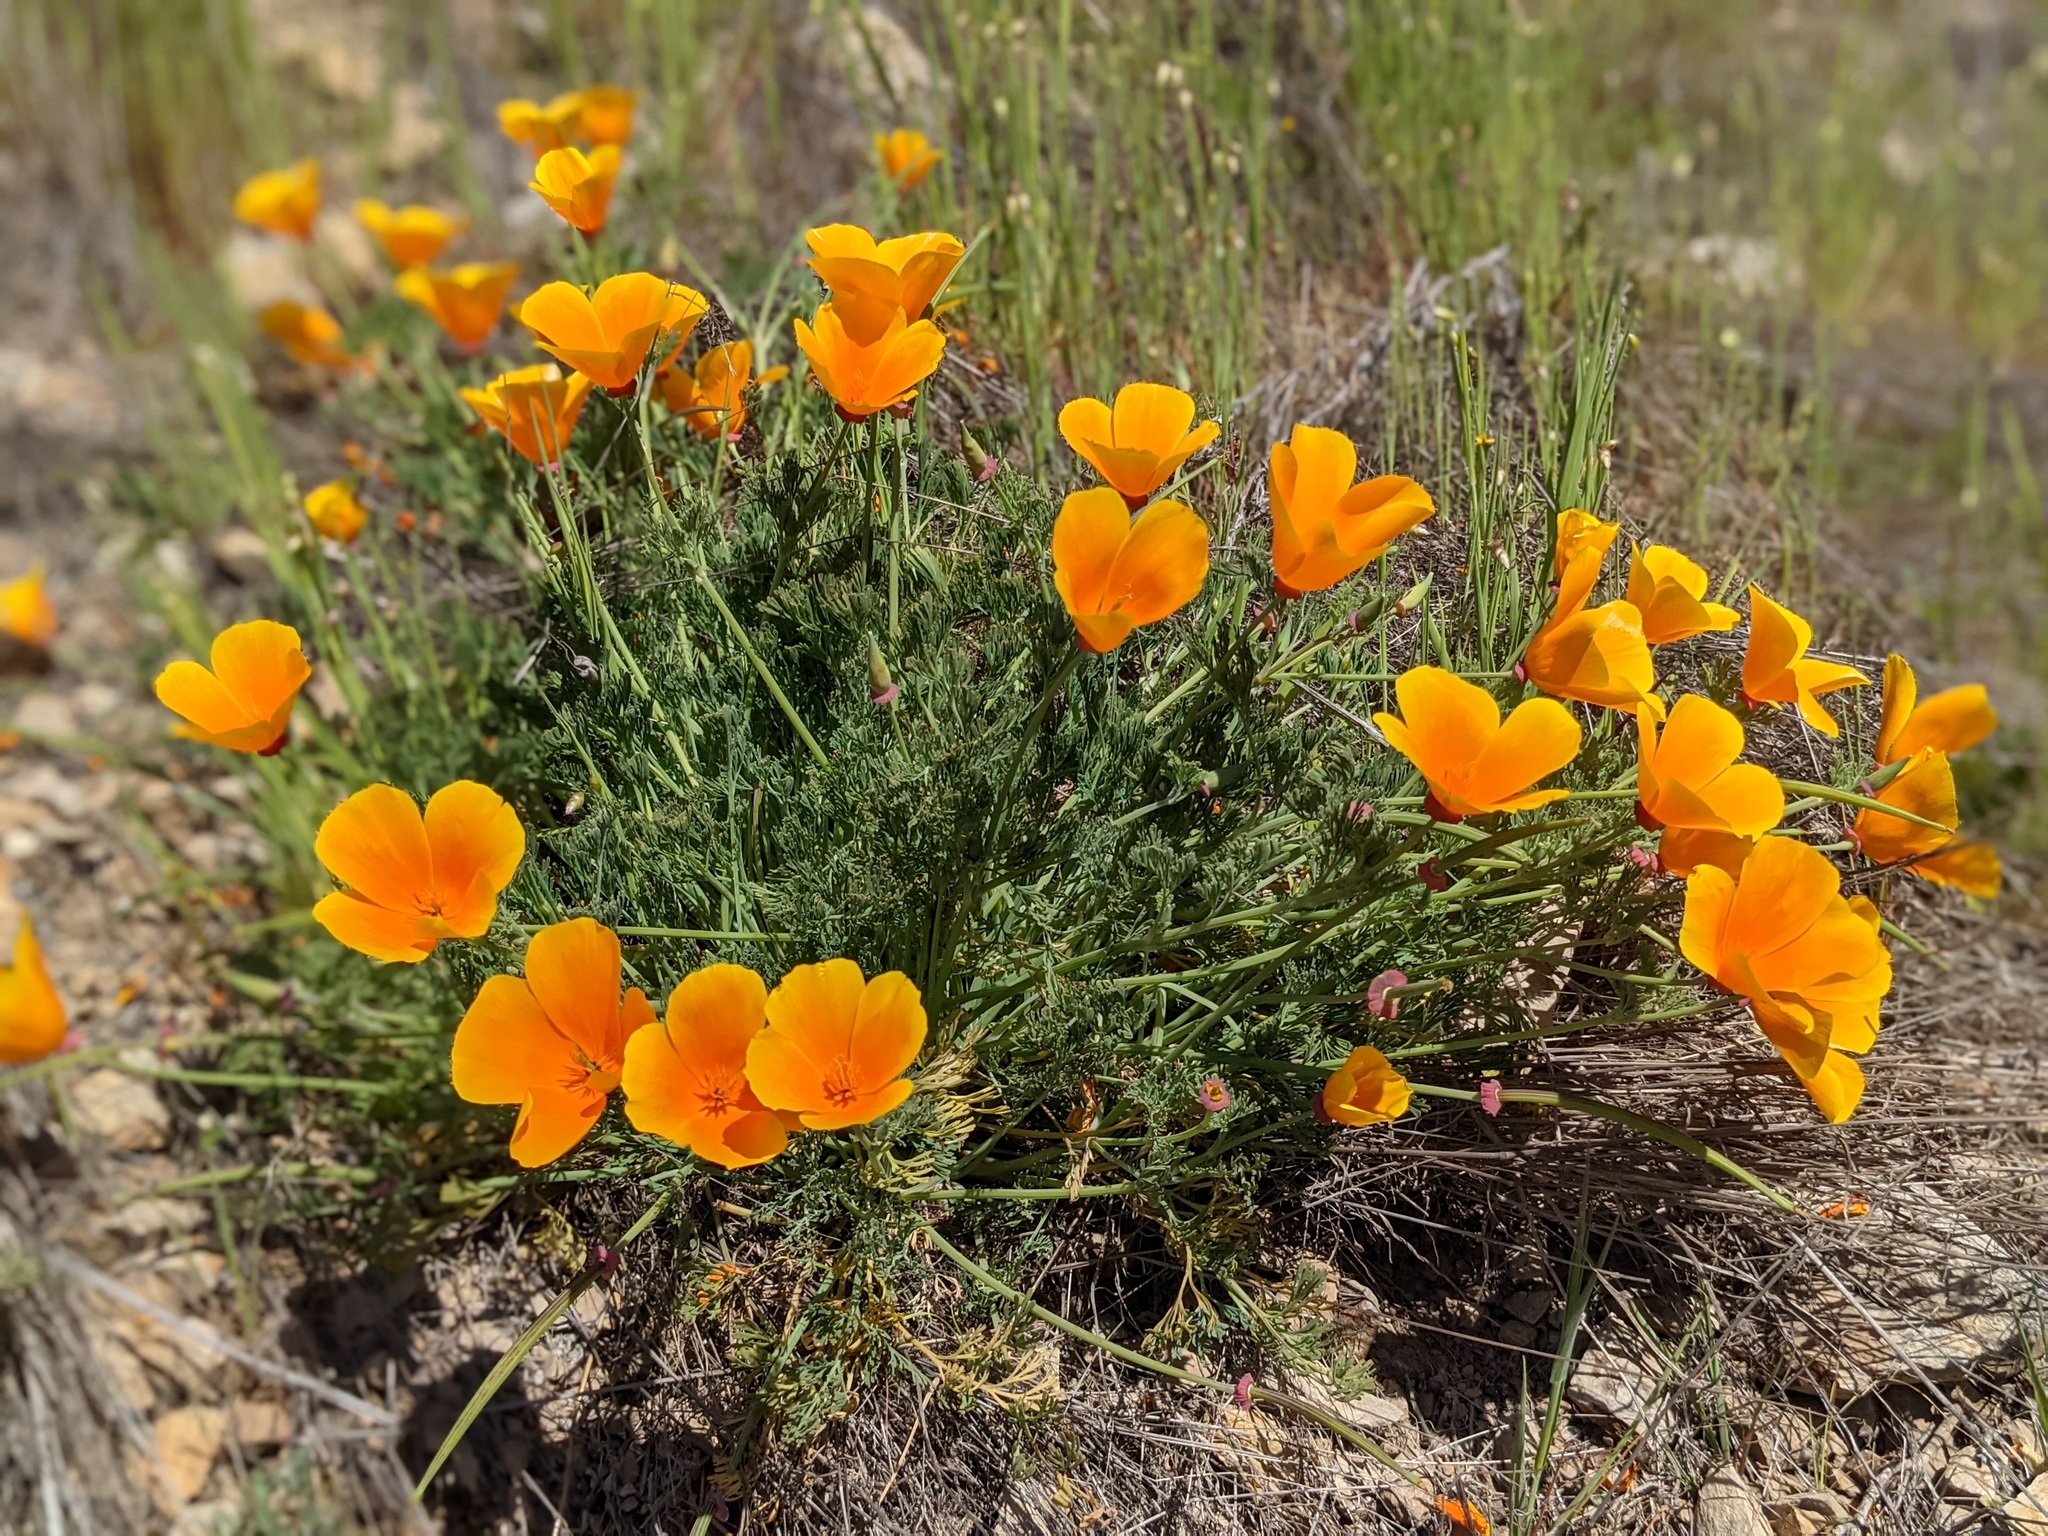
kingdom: Plantae
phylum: Tracheophyta
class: Magnoliopsida
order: Ranunculales
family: Papaveraceae
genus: Eschscholzia
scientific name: Eschscholzia californica
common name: California poppy
